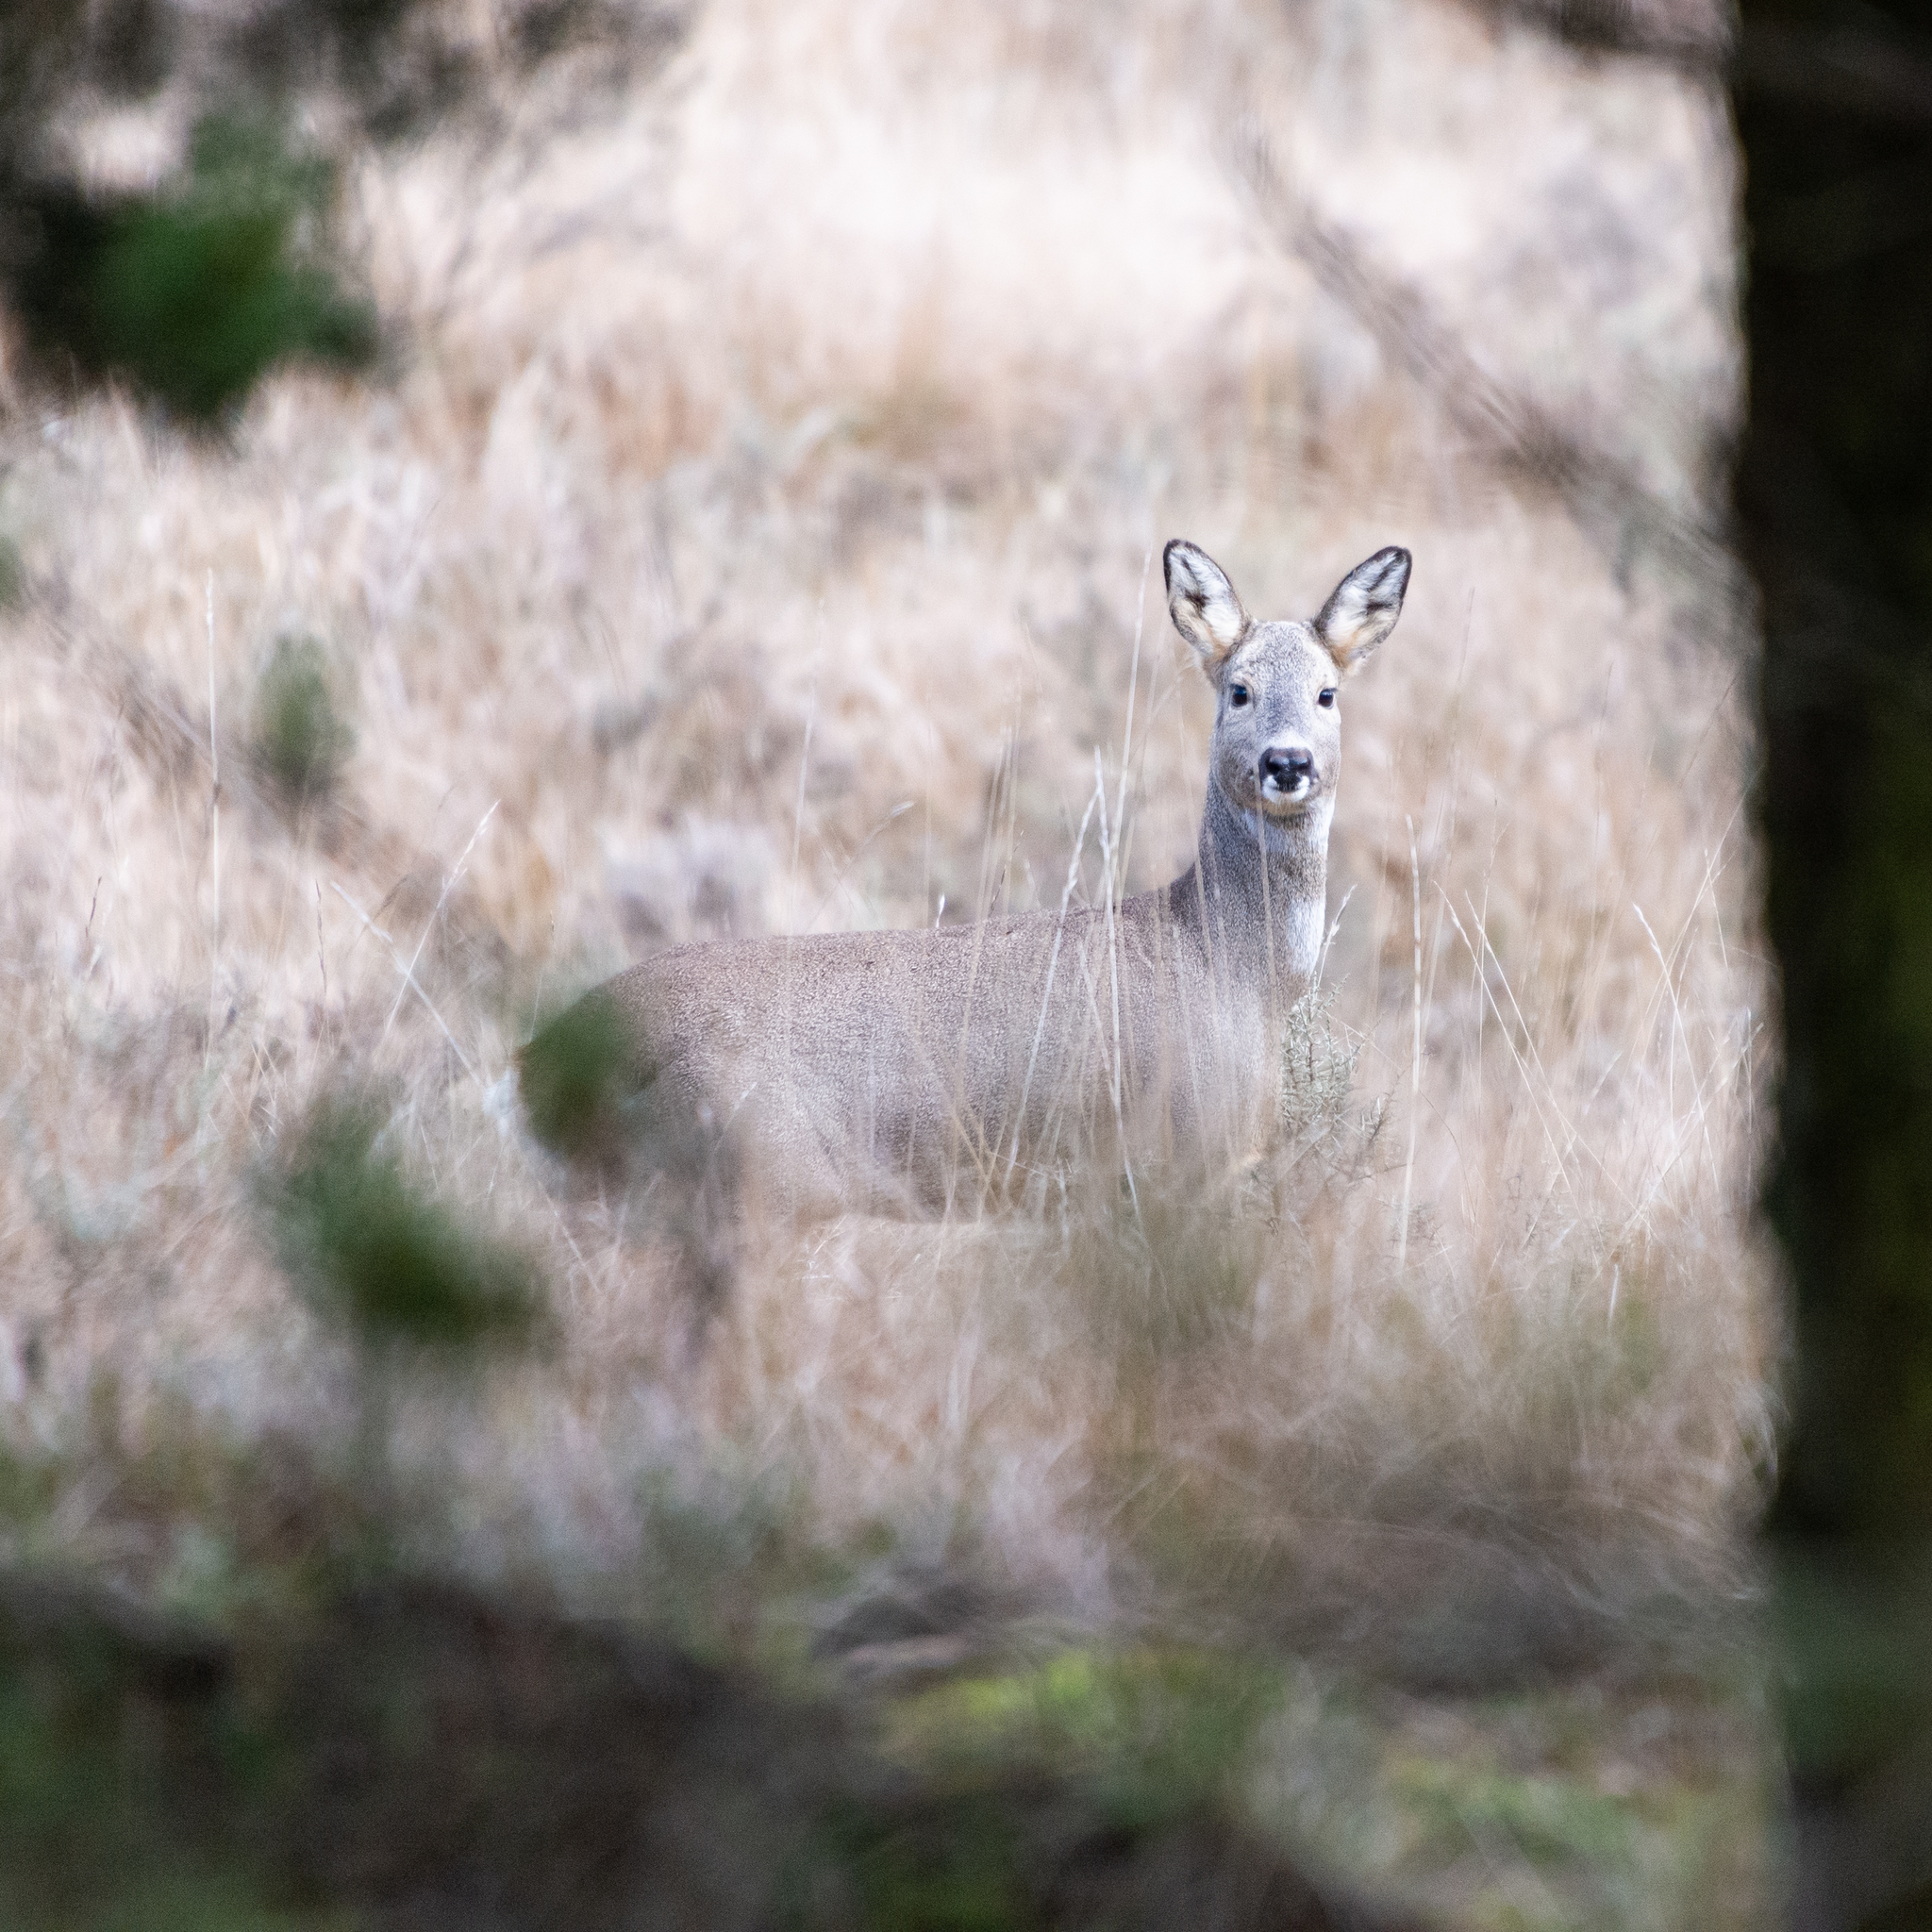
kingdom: Animalia
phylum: Chordata
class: Mammalia
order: Artiodactyla
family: Cervidae
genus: Capreolus
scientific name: Capreolus capreolus
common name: Western roe deer
